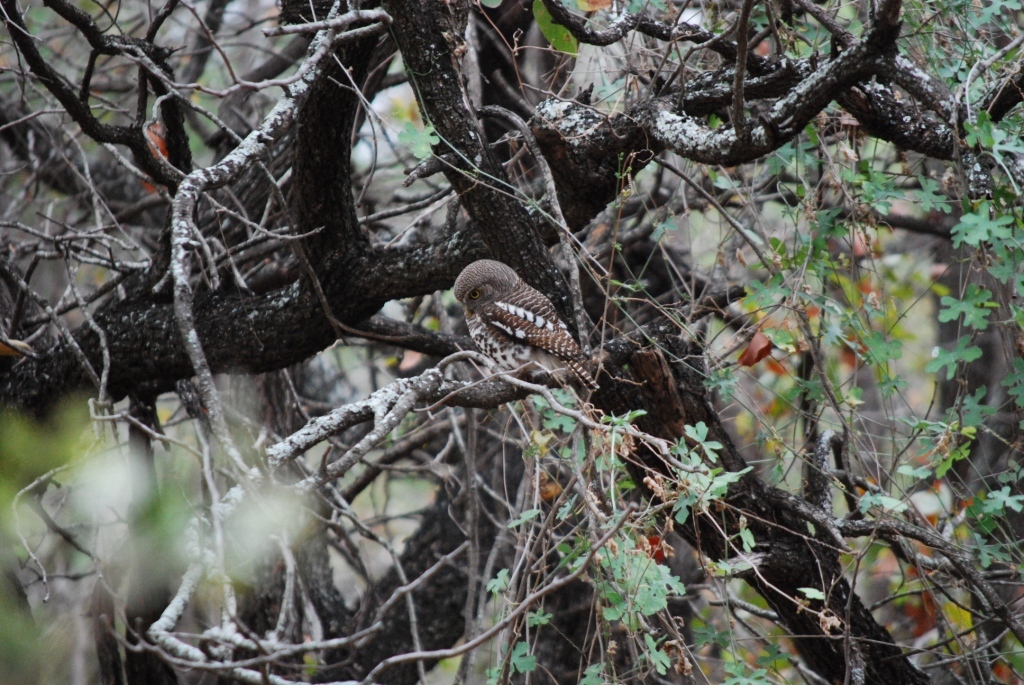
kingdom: Animalia
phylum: Chordata
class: Aves
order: Strigiformes
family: Strigidae
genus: Glaucidium
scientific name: Glaucidium capense
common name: African barred owlet
